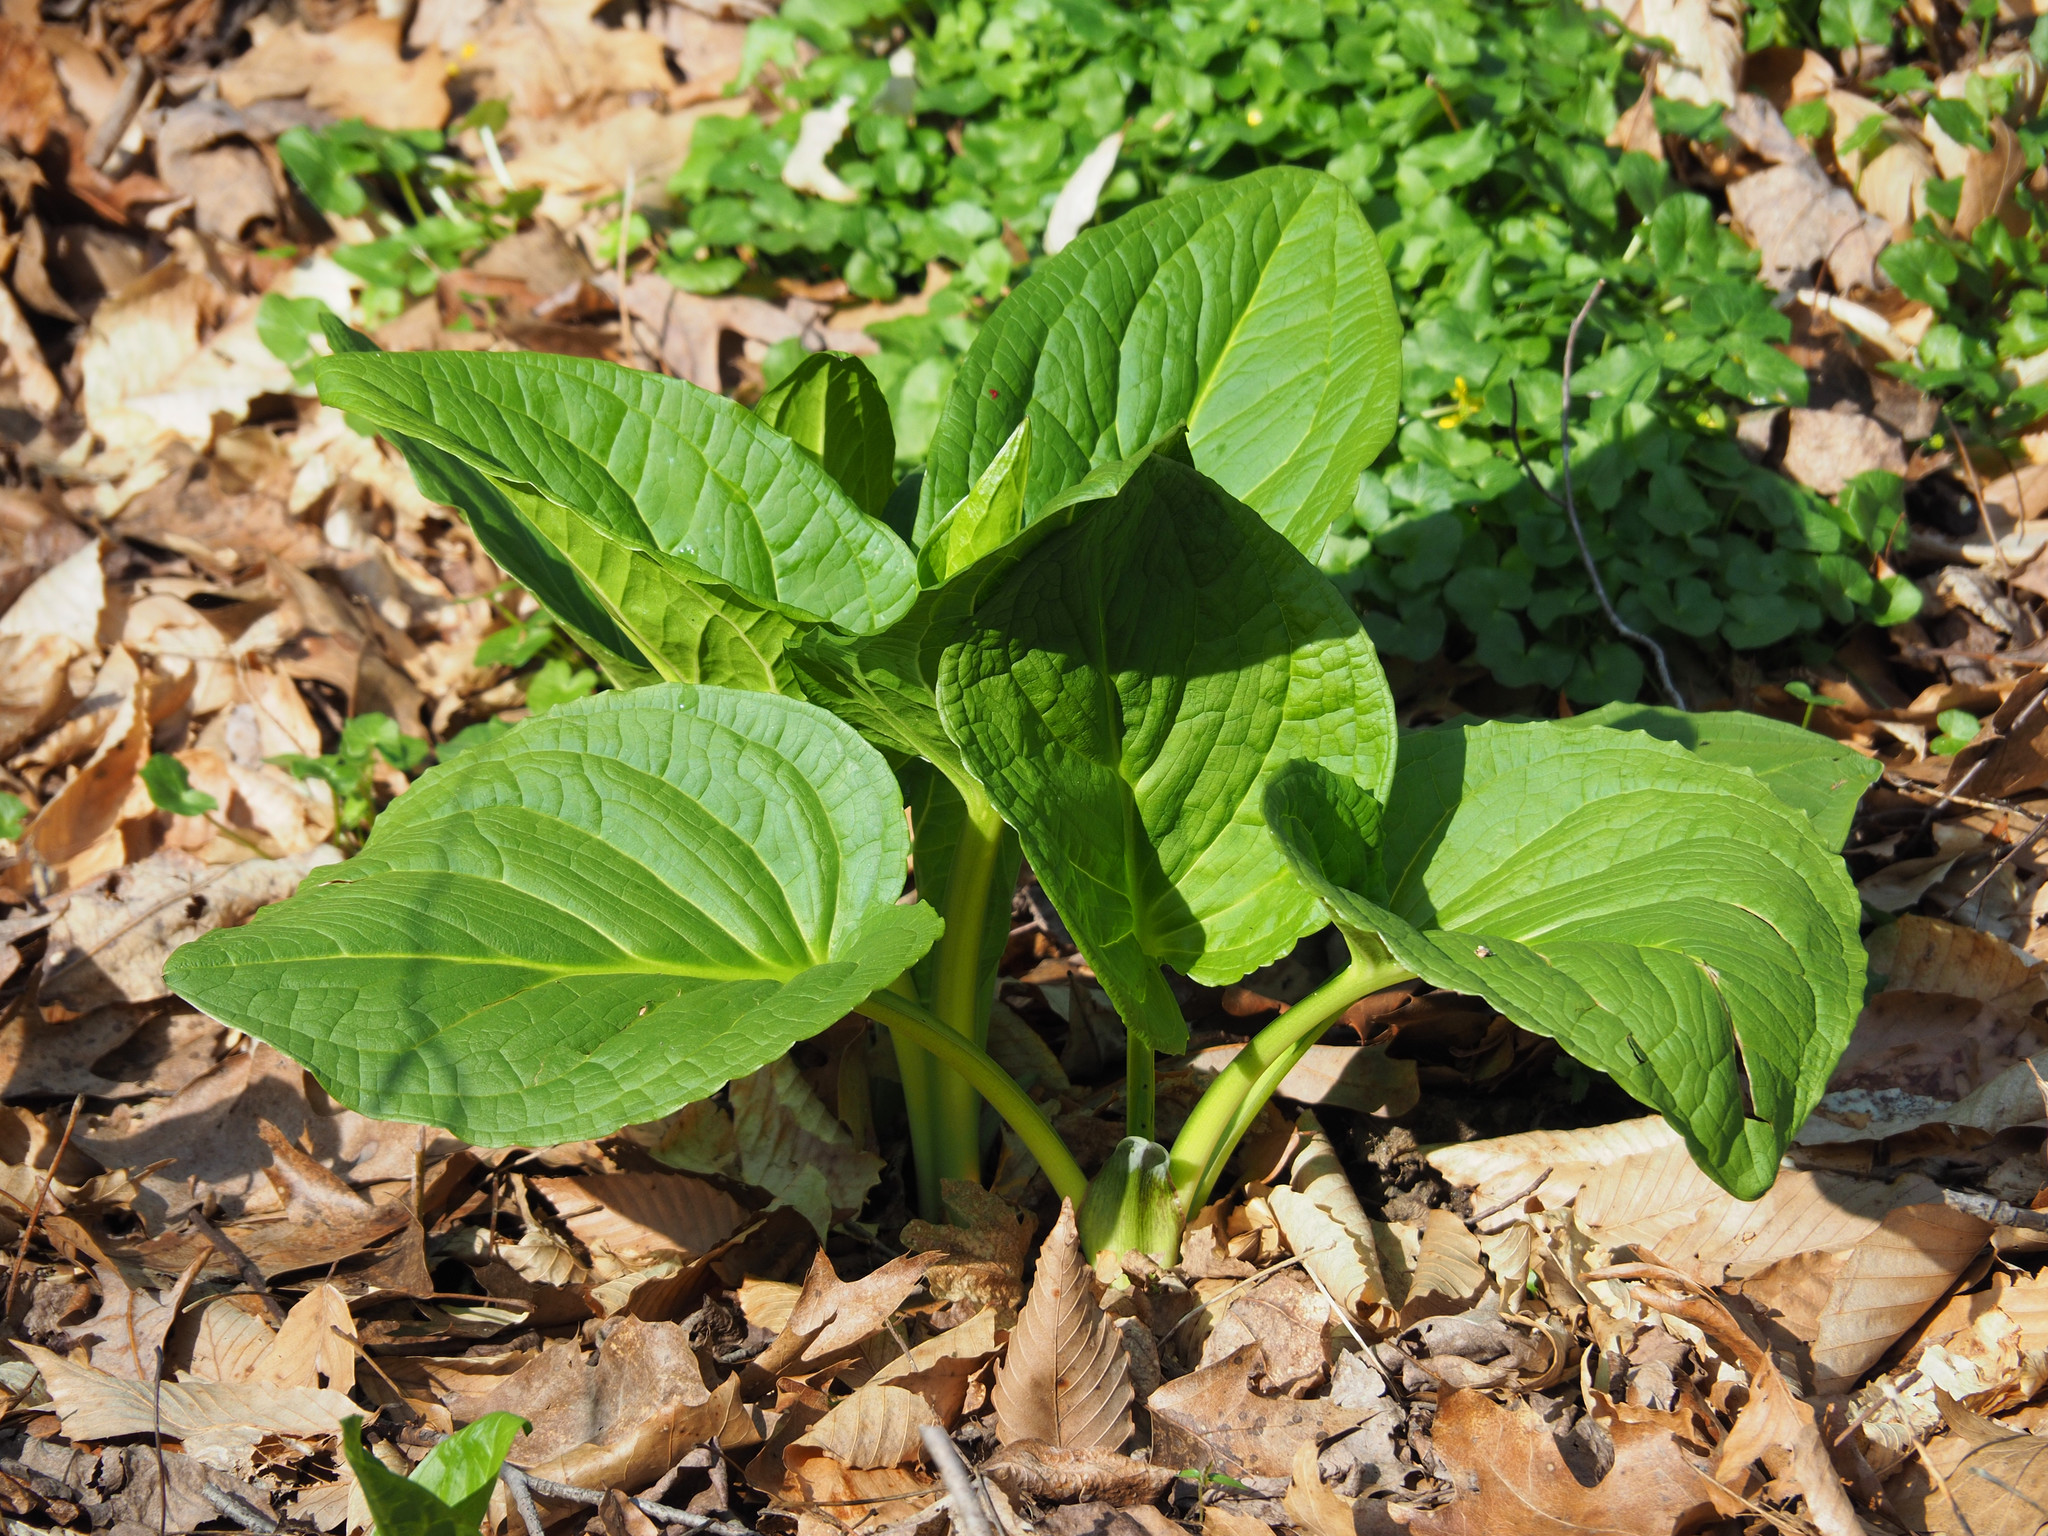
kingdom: Plantae
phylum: Tracheophyta
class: Liliopsida
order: Alismatales
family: Araceae
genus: Symplocarpus
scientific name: Symplocarpus foetidus
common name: Eastern skunk cabbage
